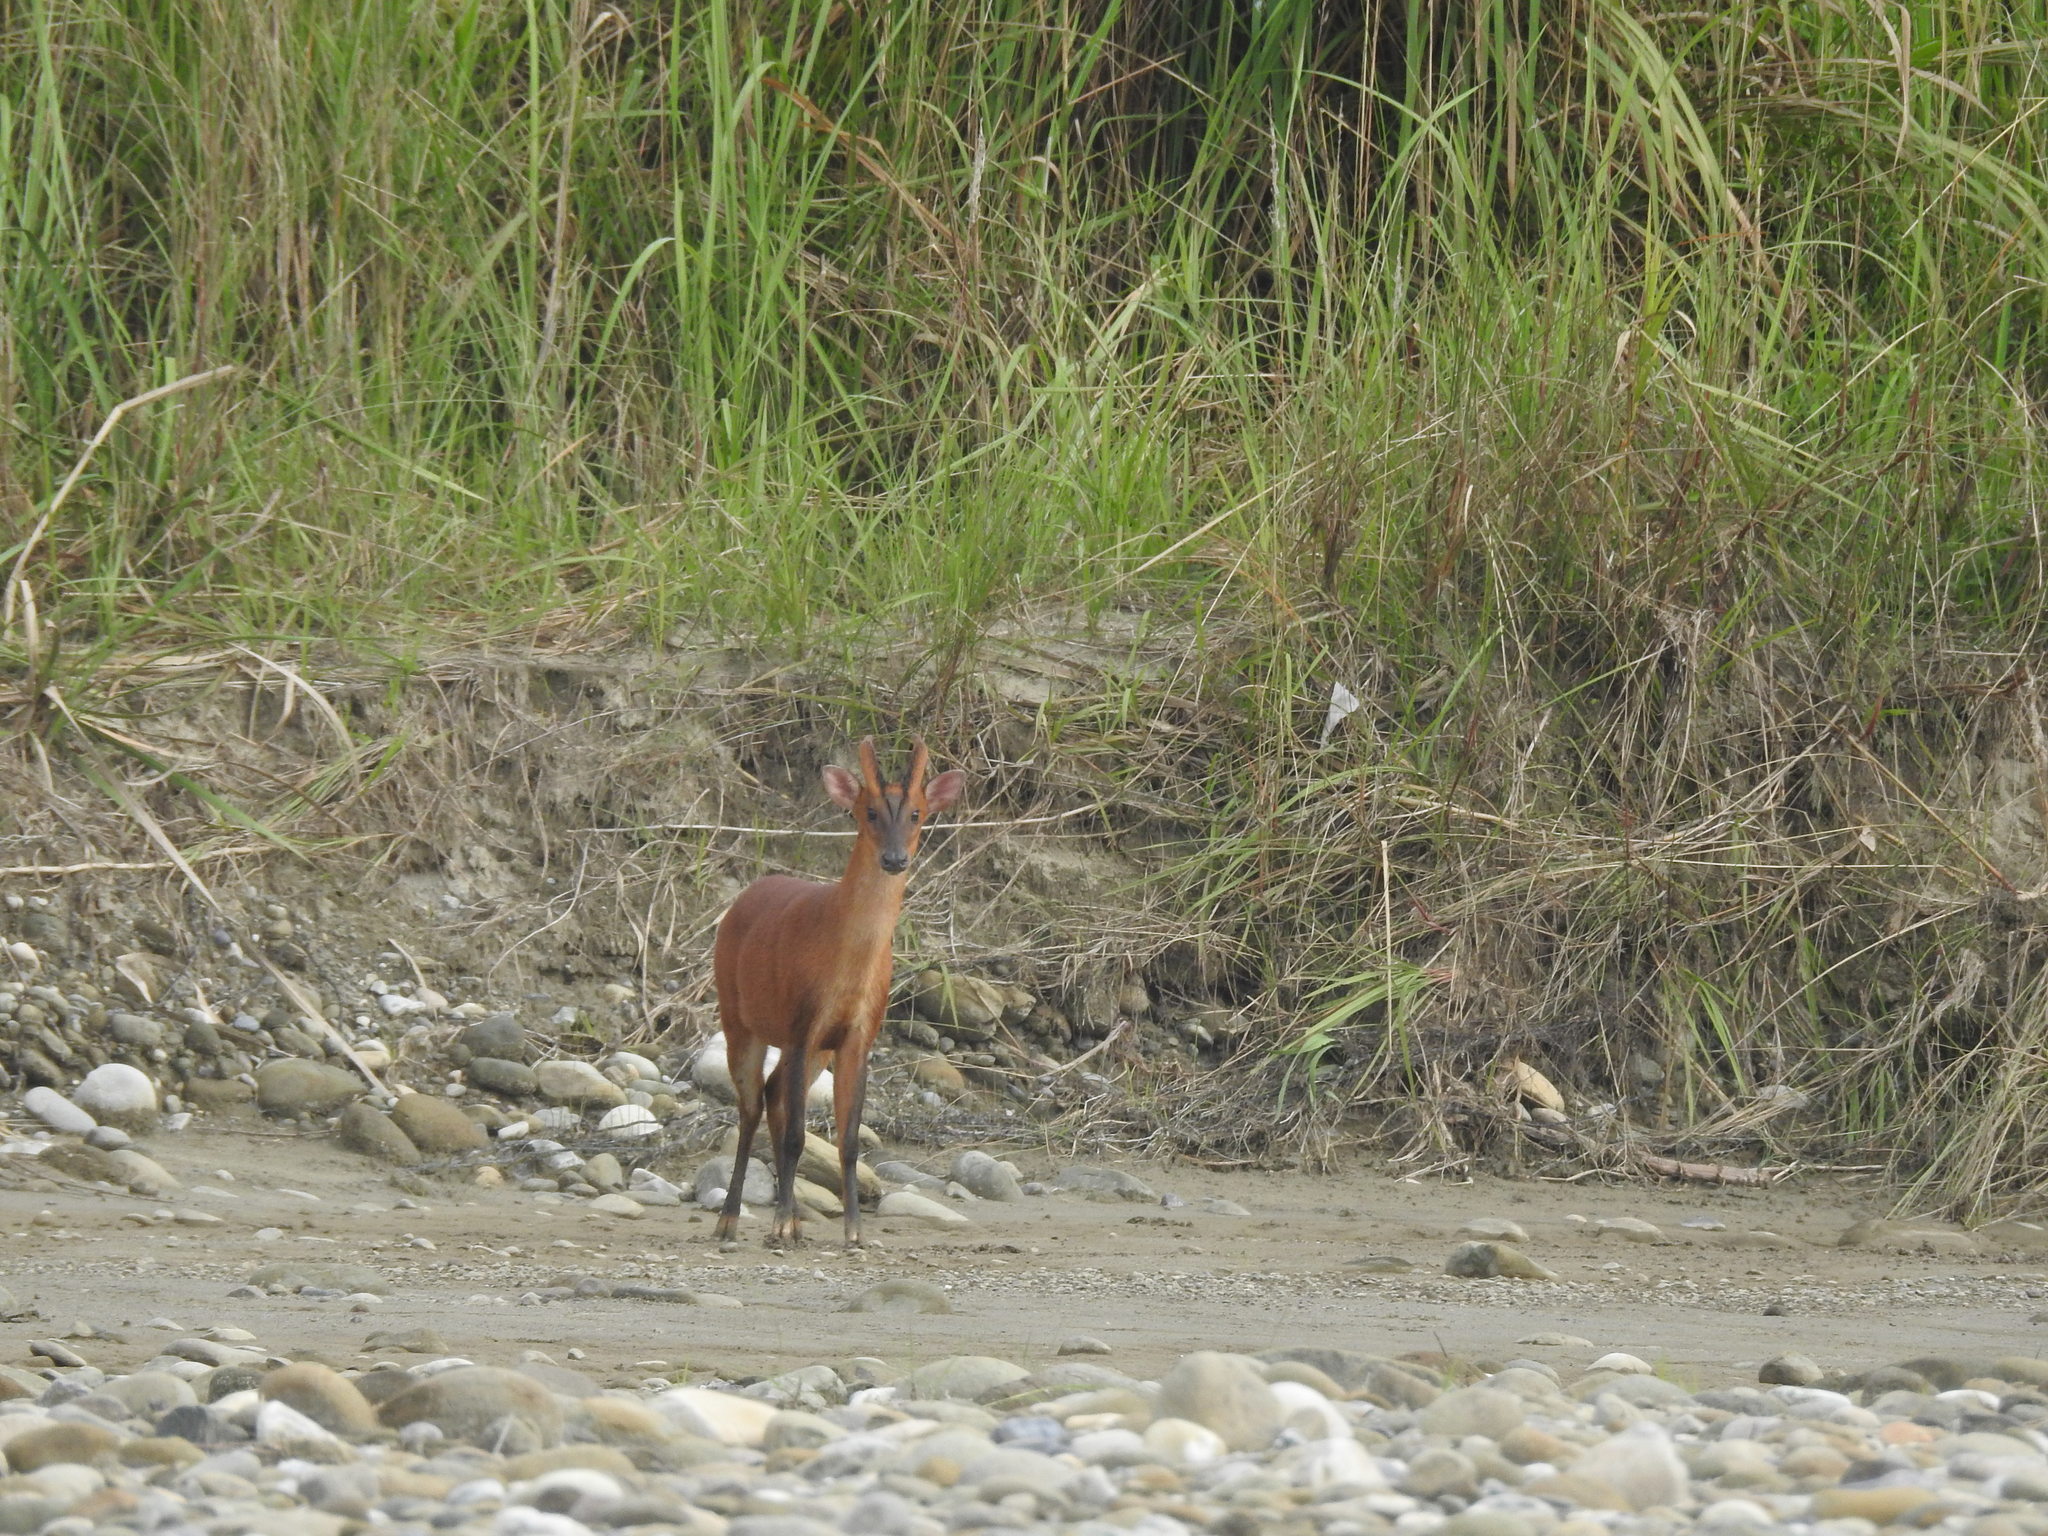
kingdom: Animalia
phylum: Chordata
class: Mammalia
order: Artiodactyla
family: Cervidae
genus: Muntiacus
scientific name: Muntiacus muntjak
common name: Indian muntjac
